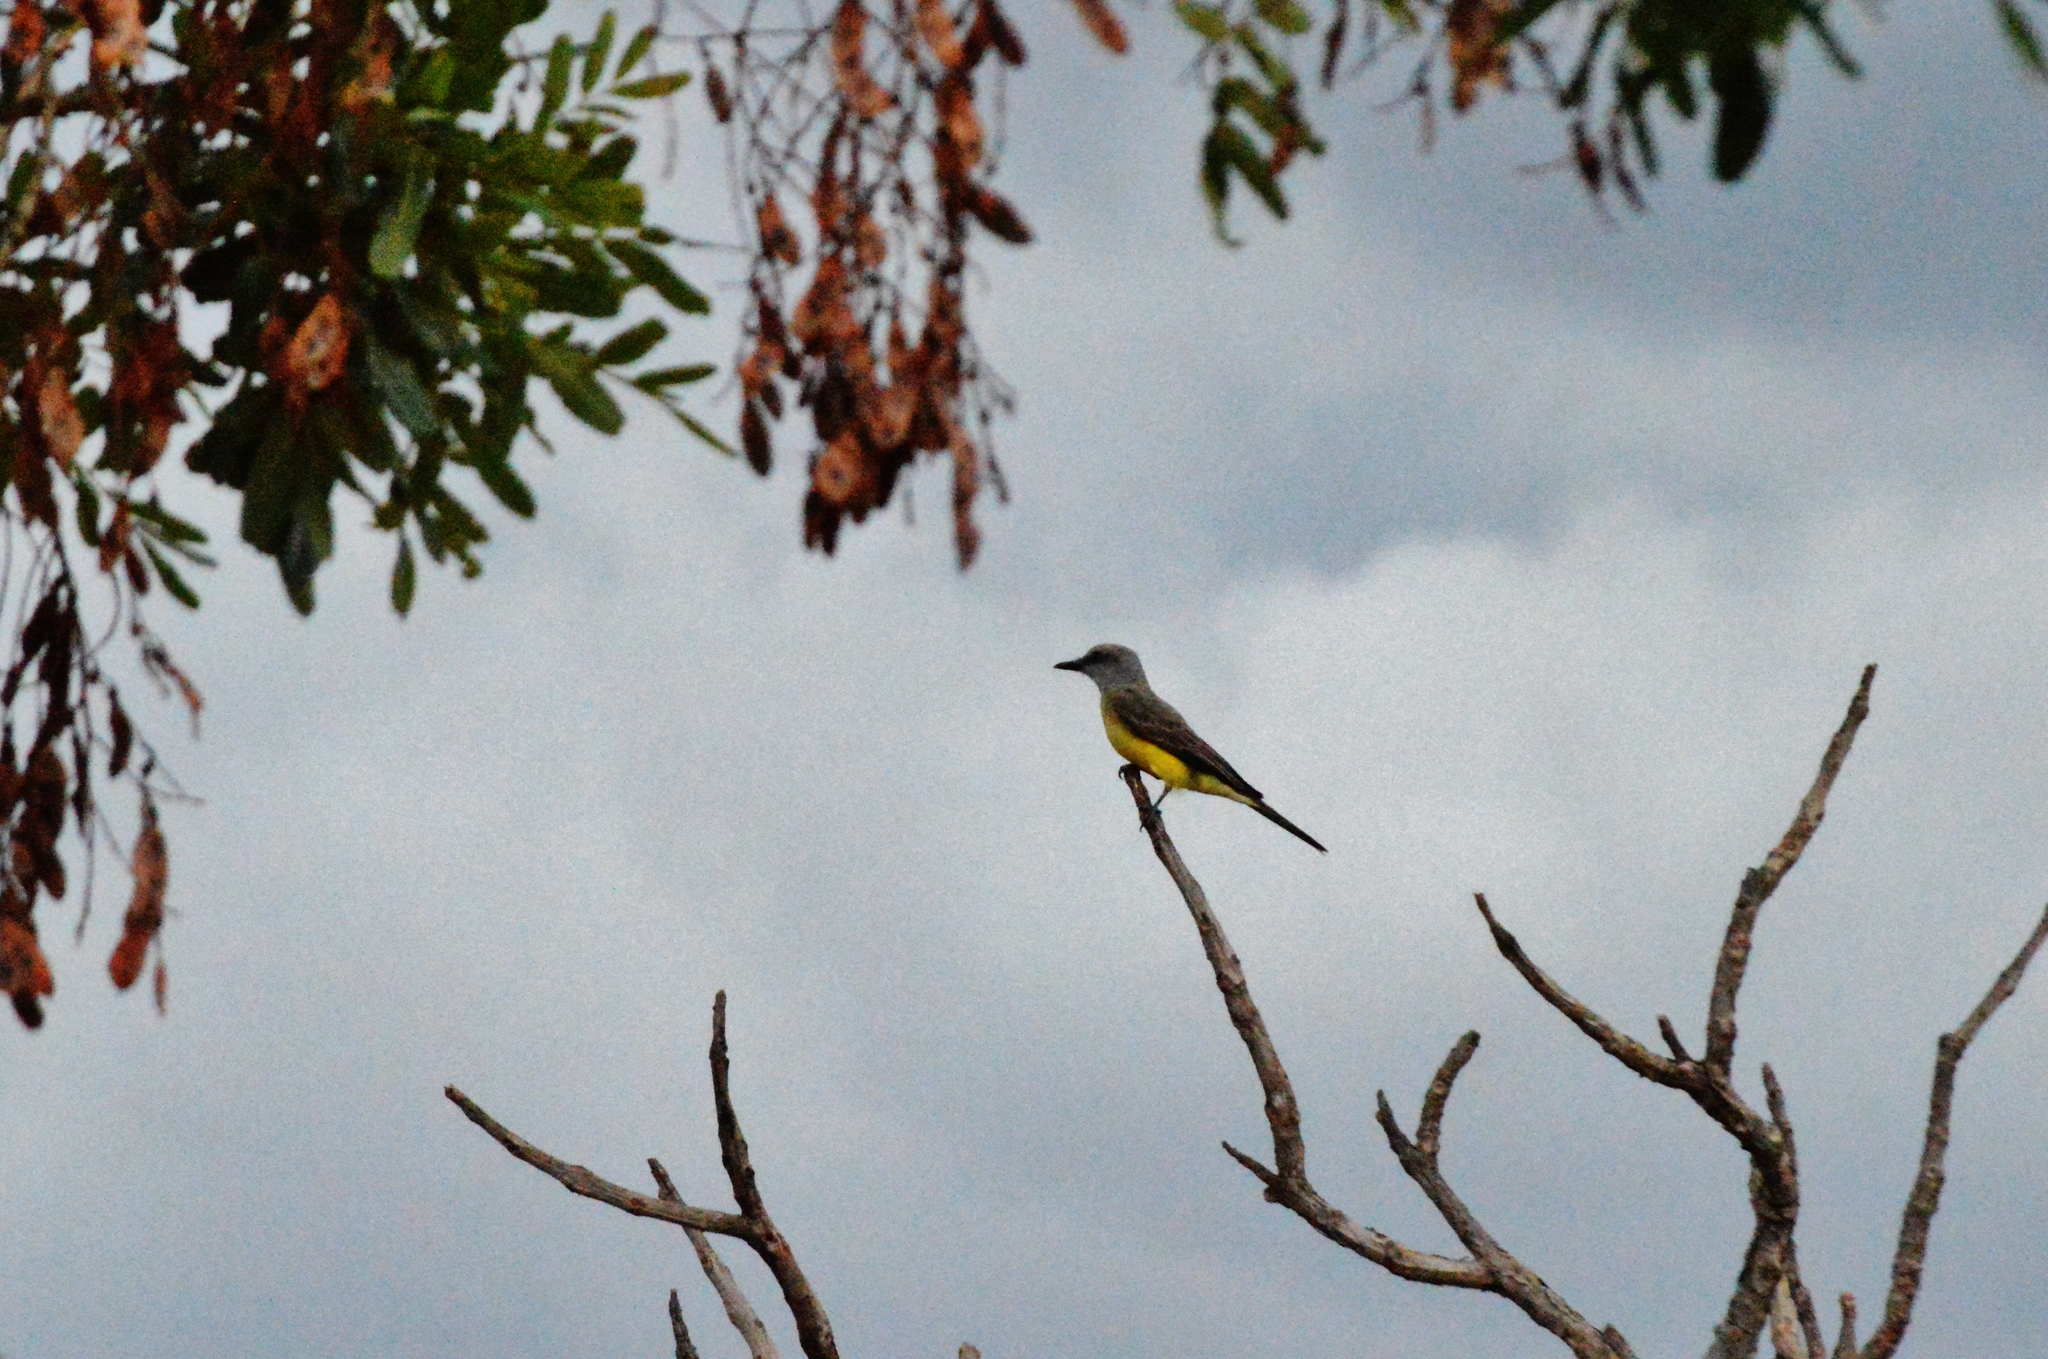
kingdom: Animalia
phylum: Chordata
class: Aves
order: Passeriformes
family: Tyrannidae
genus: Tyrannus
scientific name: Tyrannus melancholicus
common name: Tropical kingbird
